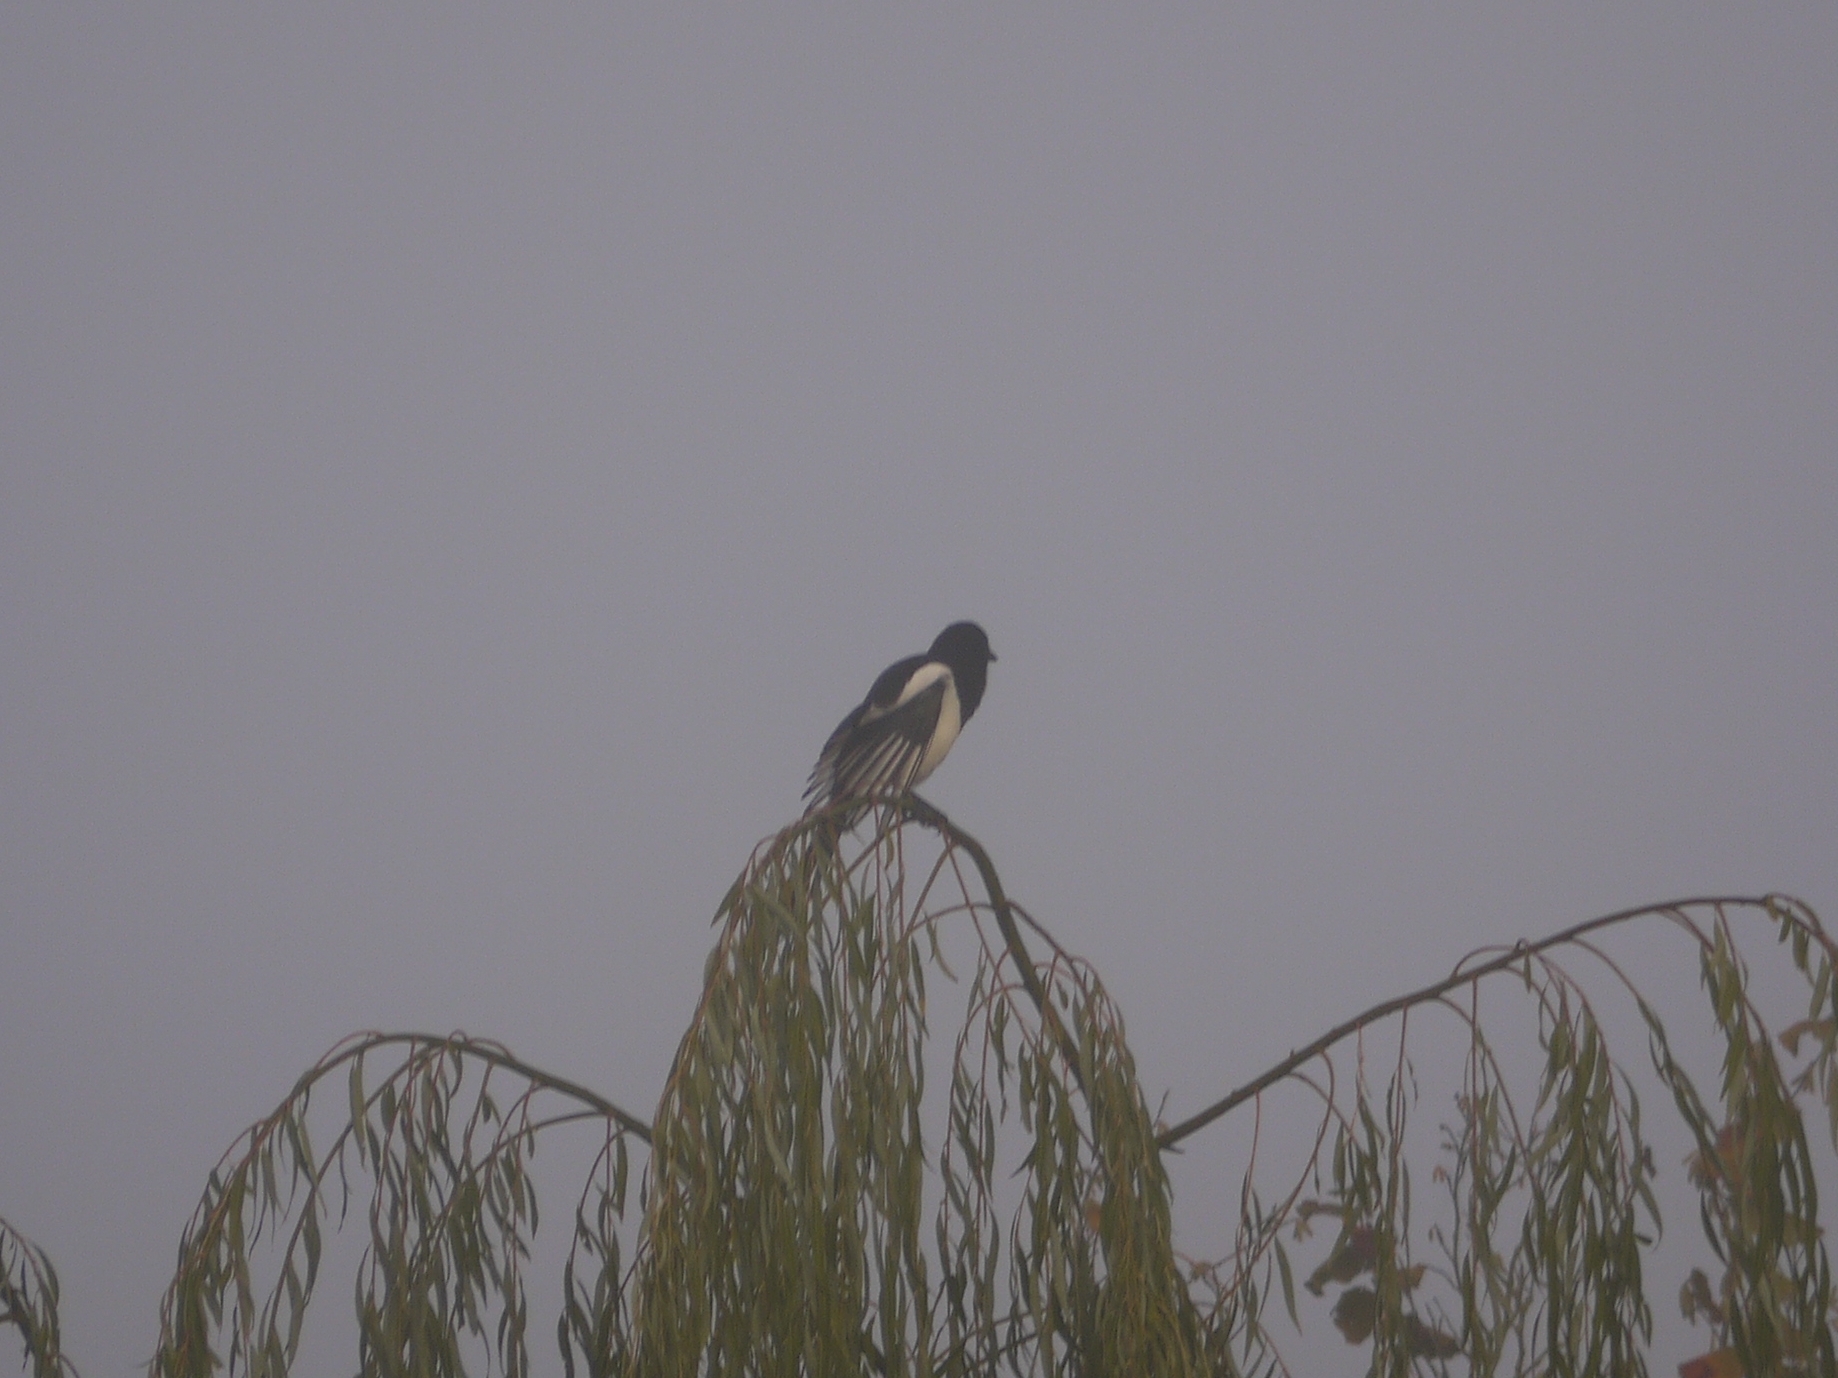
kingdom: Animalia
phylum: Chordata
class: Aves
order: Passeriformes
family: Corvidae
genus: Pica
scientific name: Pica pica
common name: Eurasian magpie
